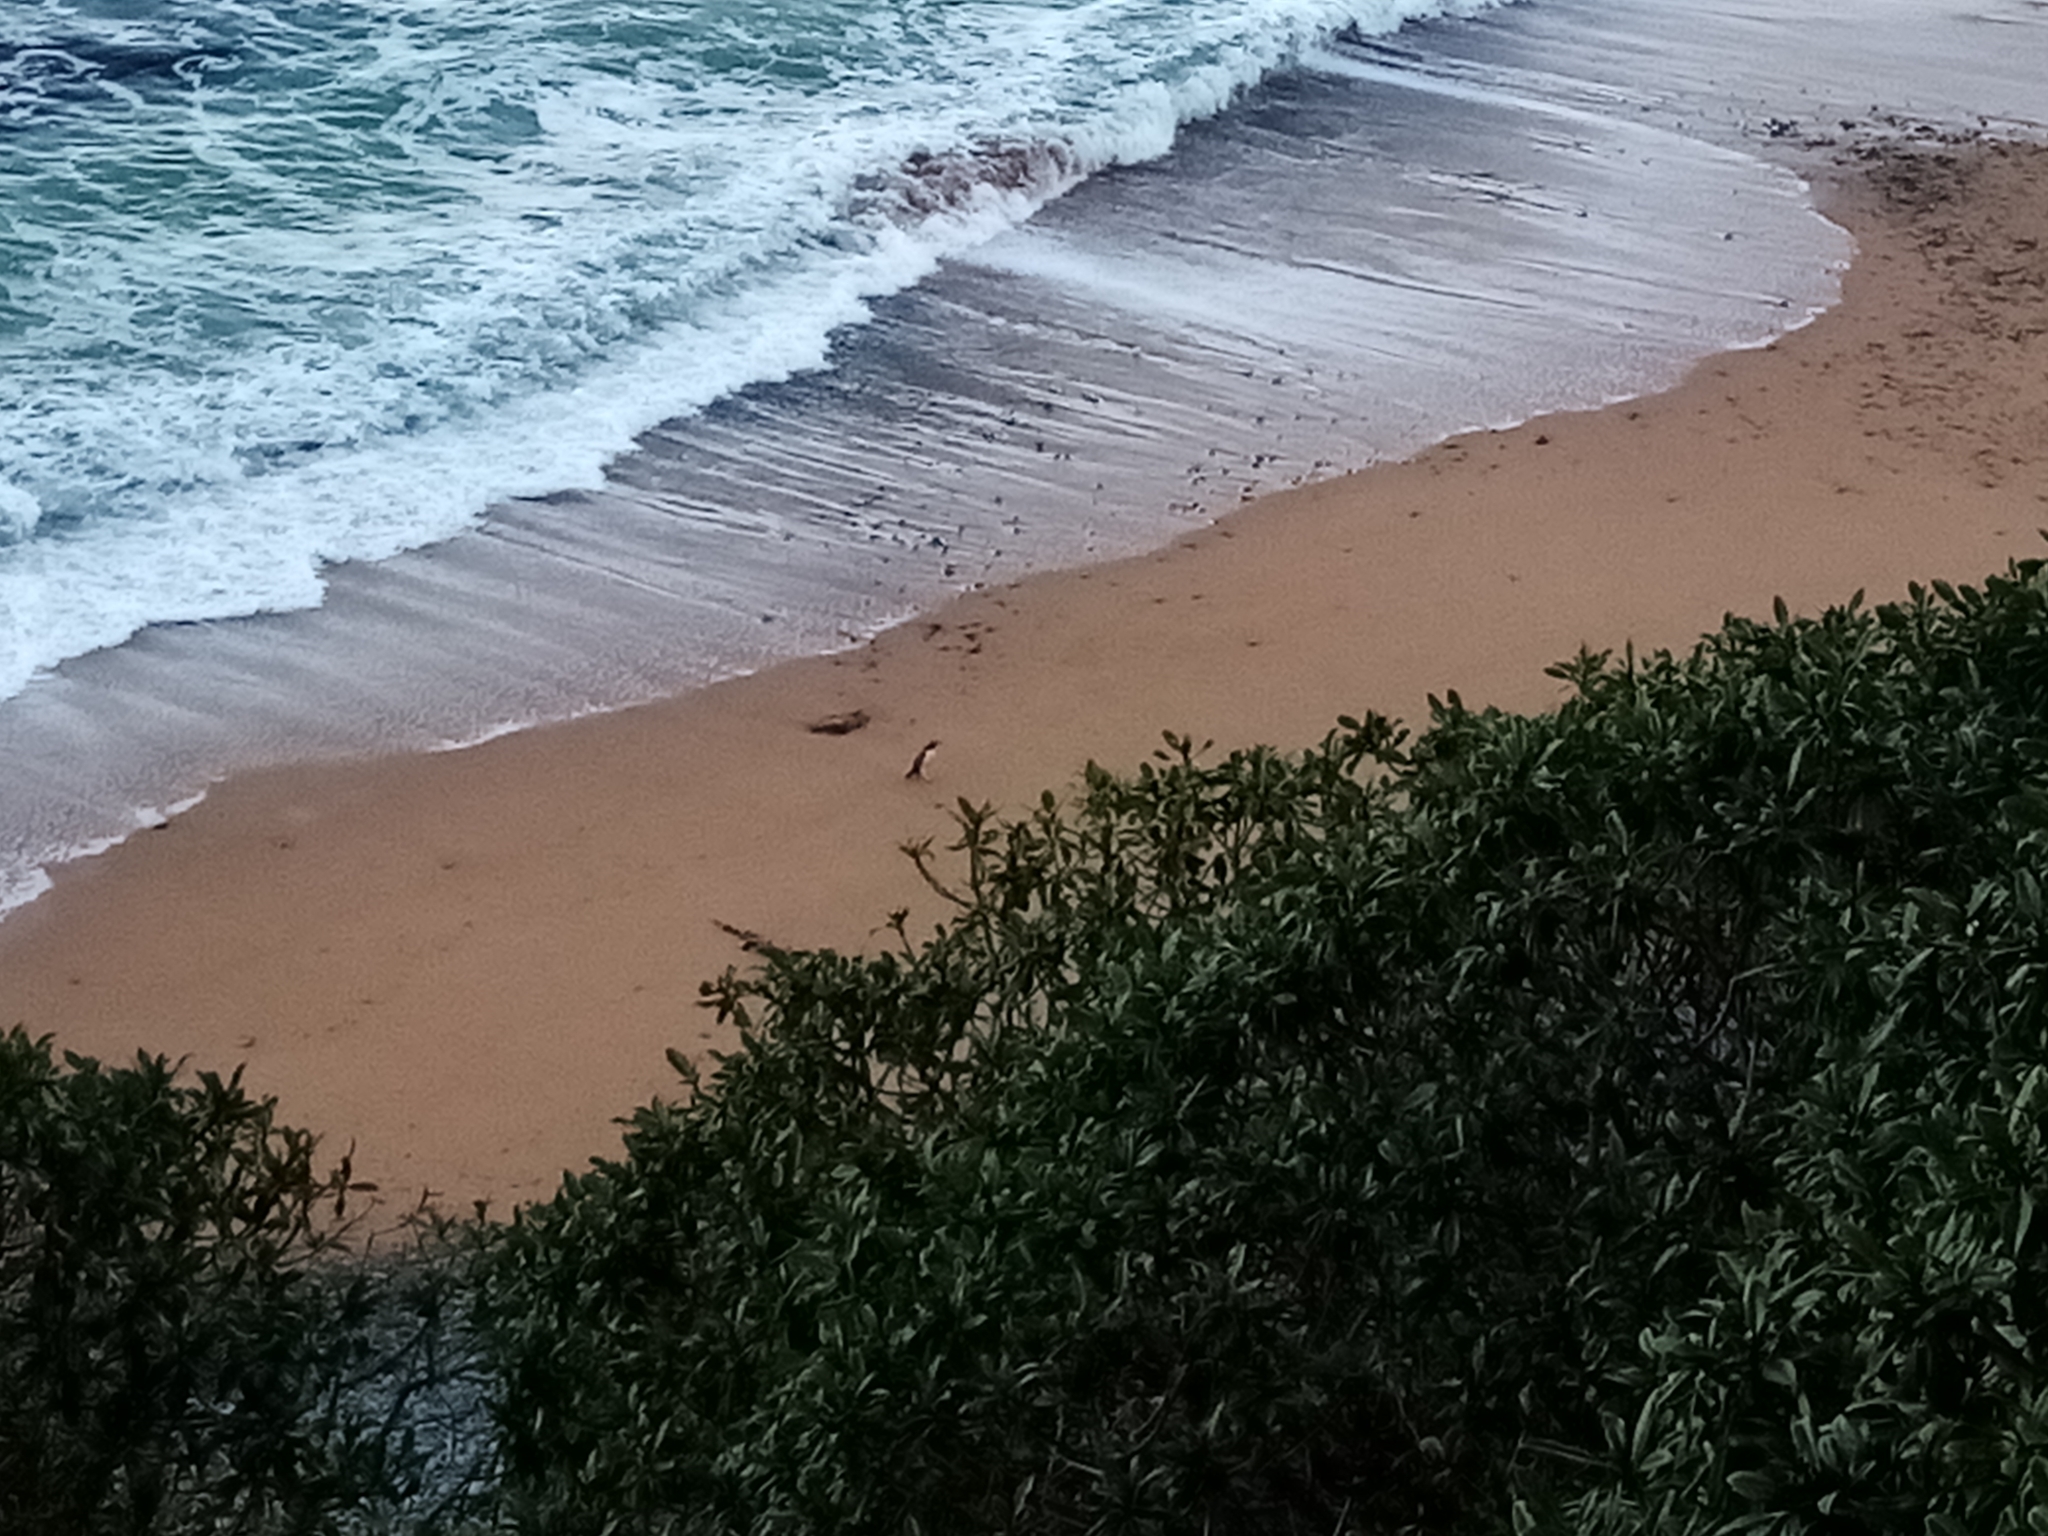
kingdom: Animalia
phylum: Chordata
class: Aves
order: Sphenisciformes
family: Spheniscidae
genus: Megadyptes
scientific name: Megadyptes antipodes
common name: Yellow-eyed penguin
